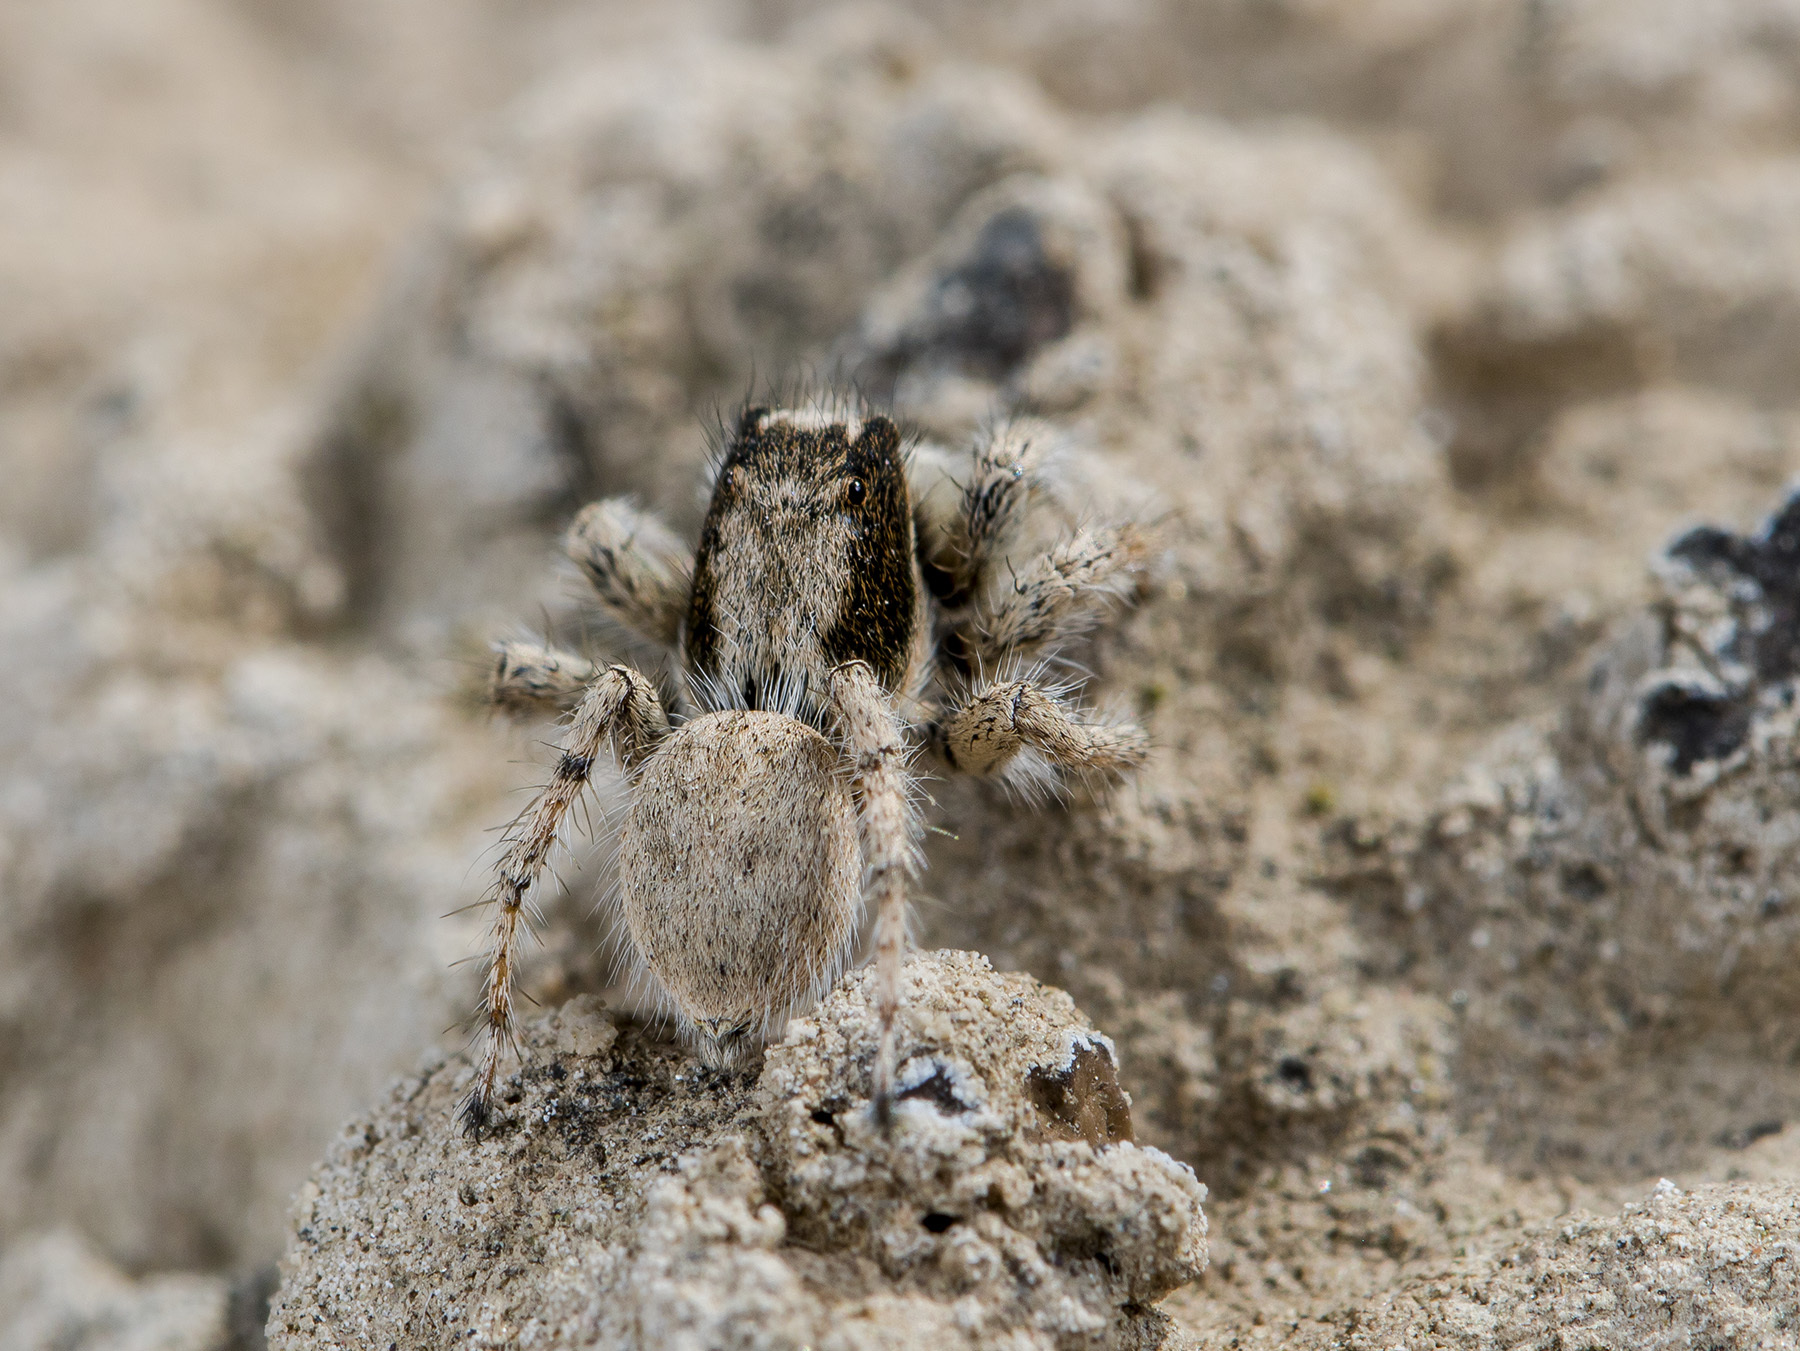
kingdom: Animalia
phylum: Arthropoda
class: Arachnida
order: Araneae
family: Salticidae
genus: Aelurillus
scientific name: Aelurillus concolor
